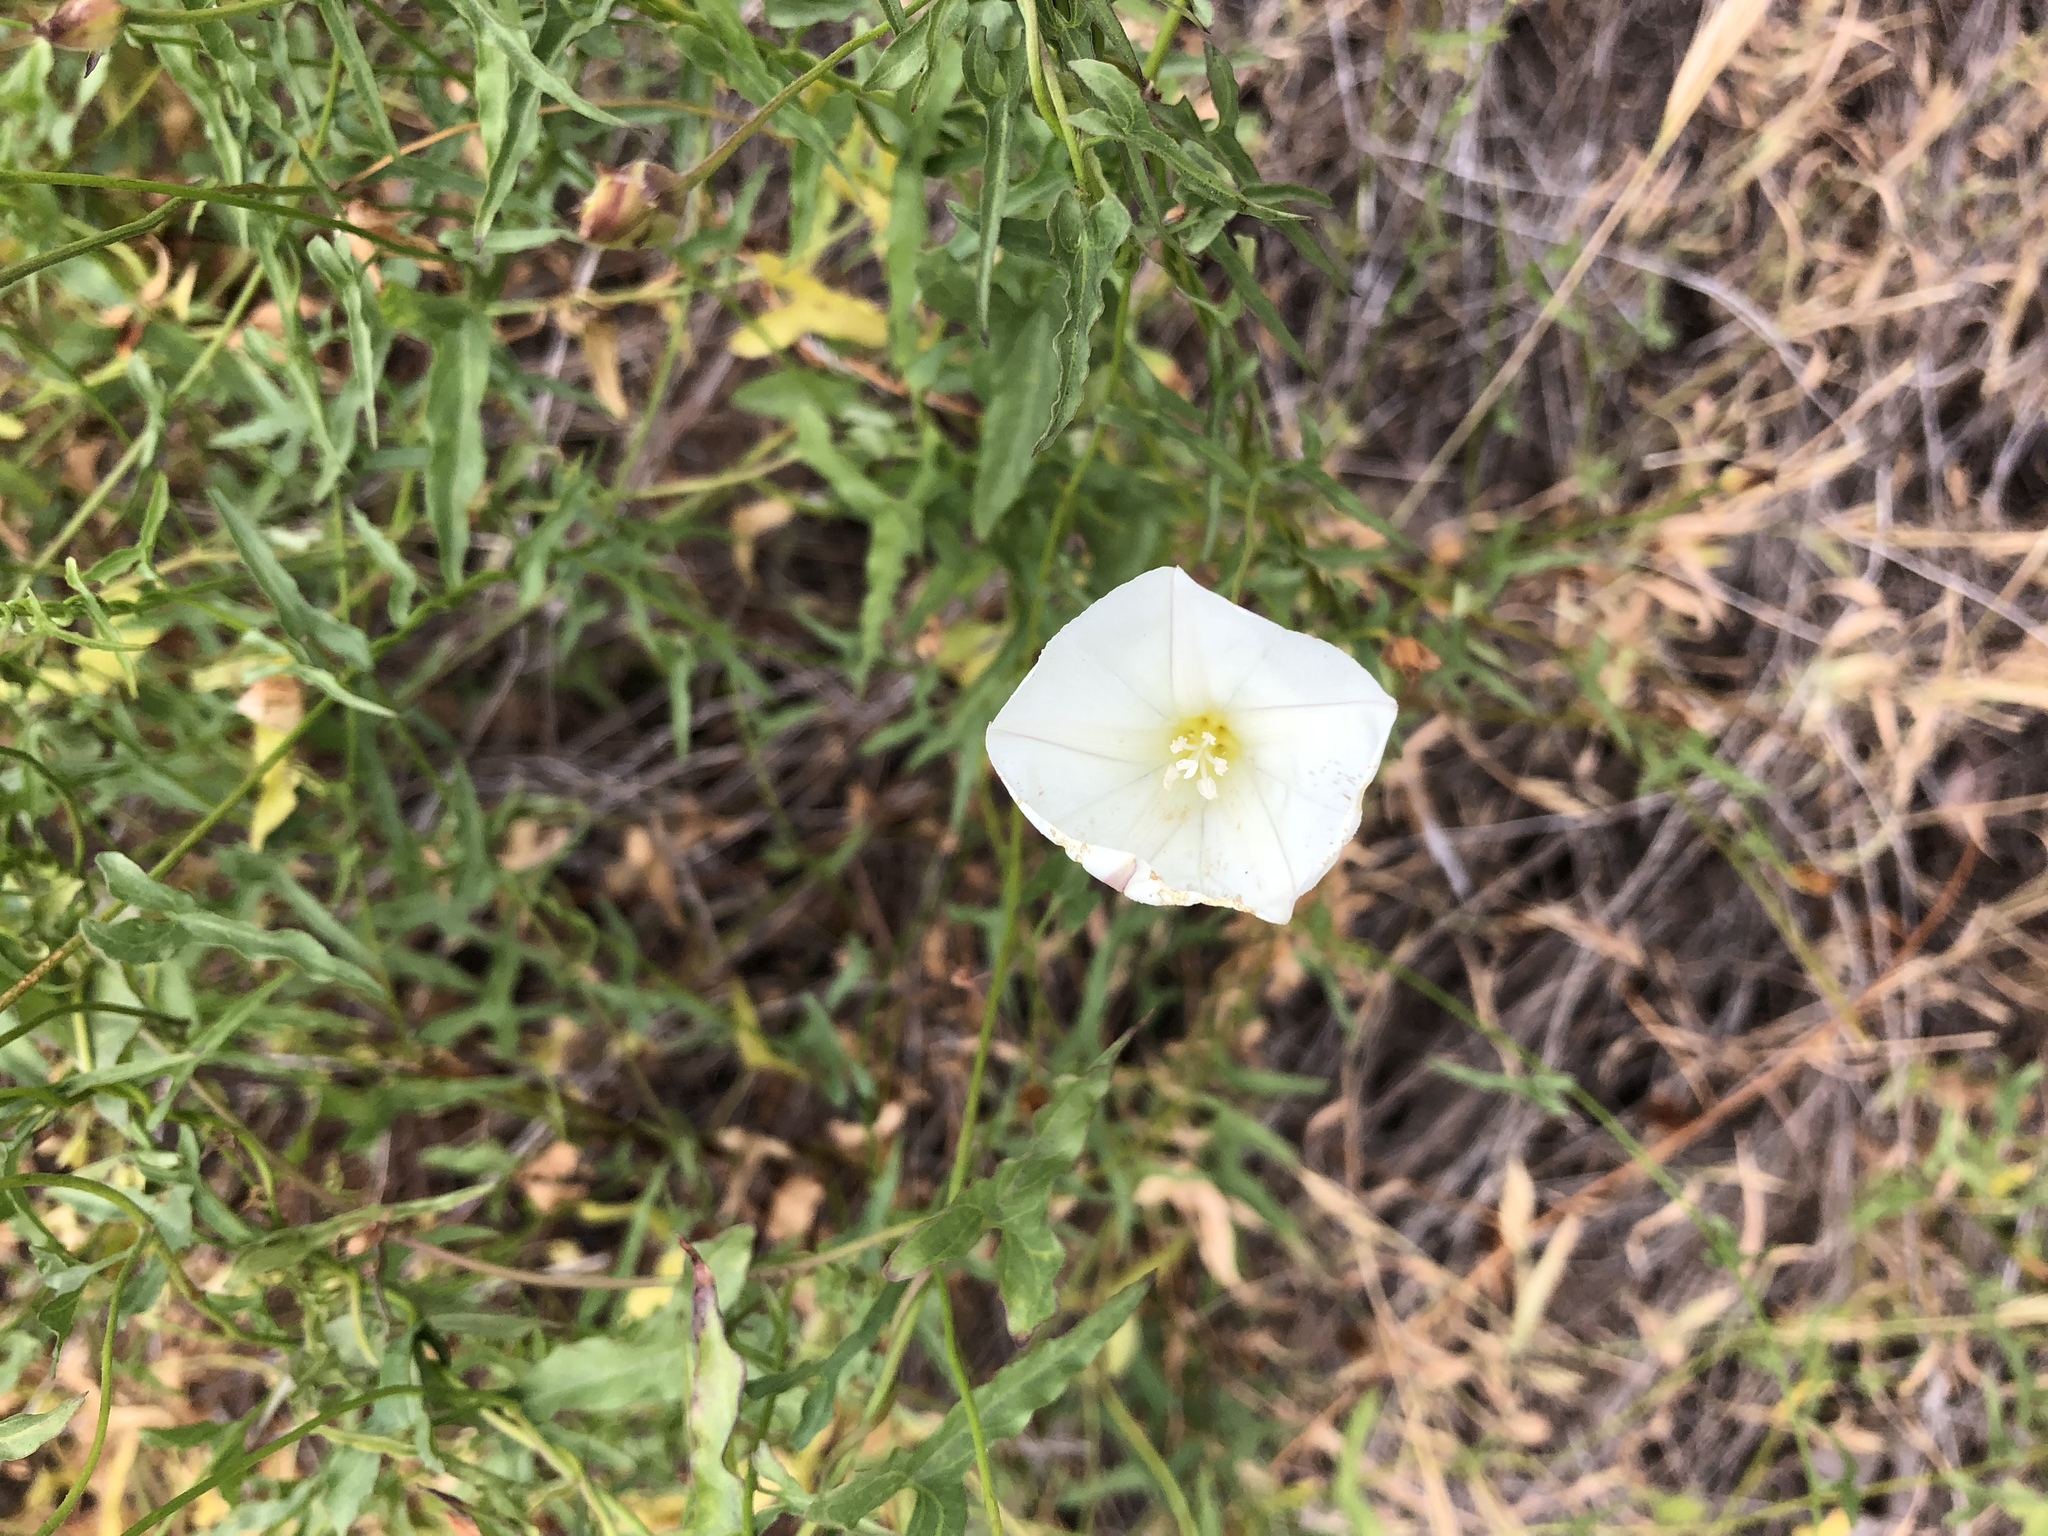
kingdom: Plantae
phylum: Tracheophyta
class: Magnoliopsida
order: Solanales
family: Convolvulaceae
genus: Convolvulus
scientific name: Convolvulus arvensis
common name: Field bindweed
